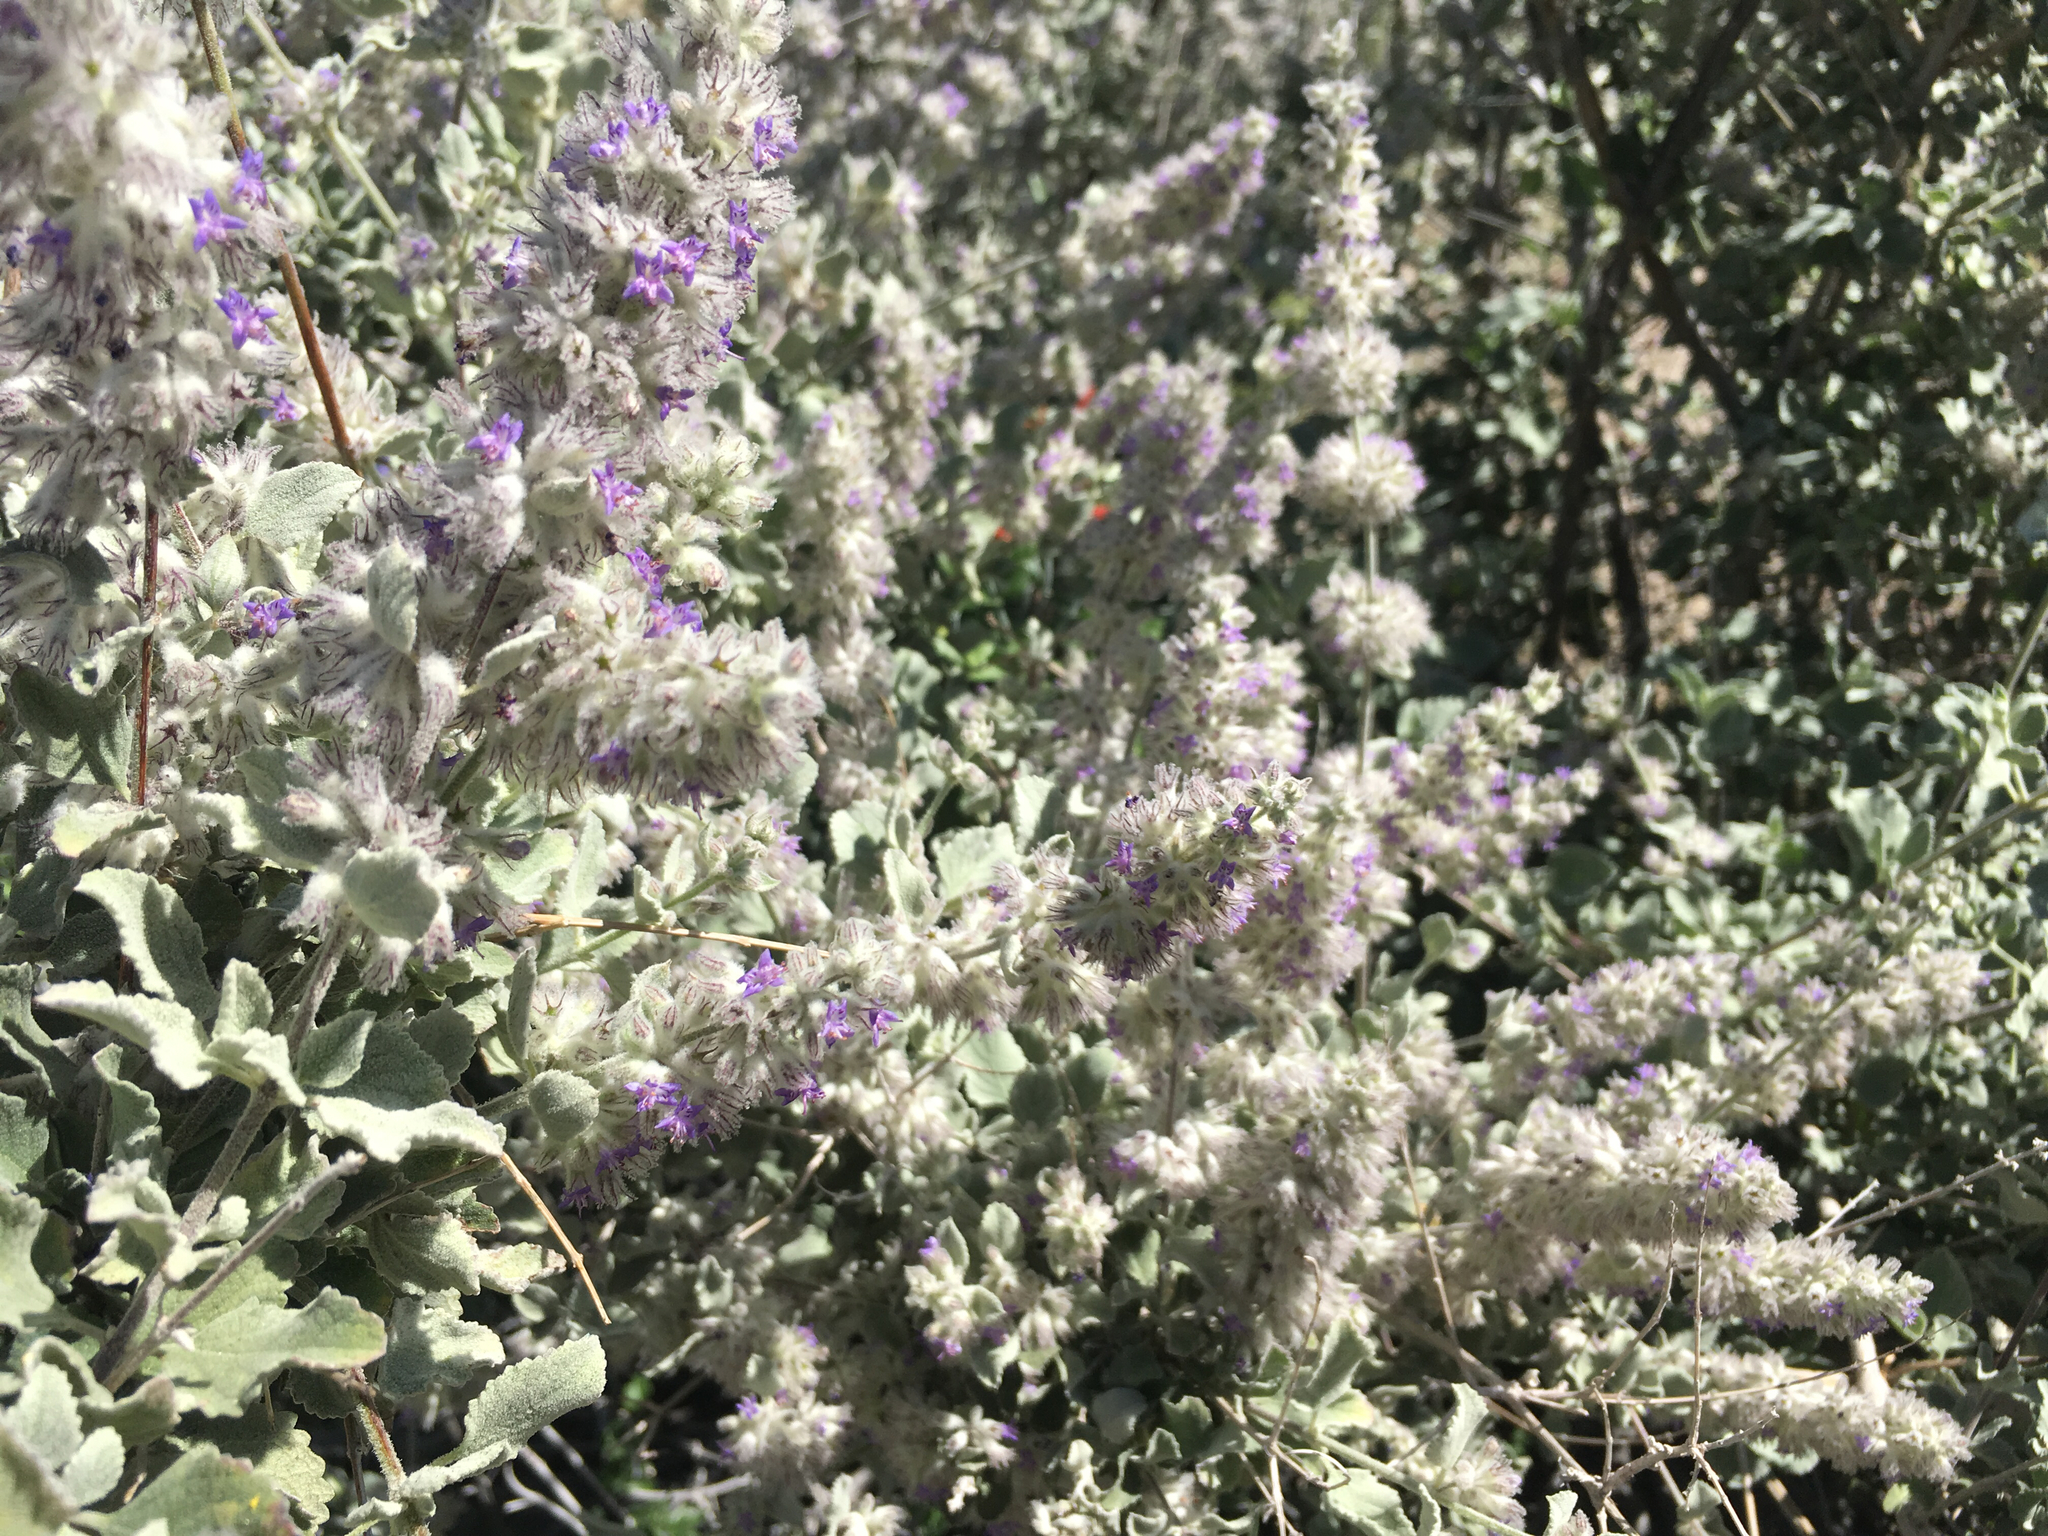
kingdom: Plantae
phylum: Tracheophyta
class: Magnoliopsida
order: Lamiales
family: Lamiaceae
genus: Condea
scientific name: Condea emoryi
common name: Chia
